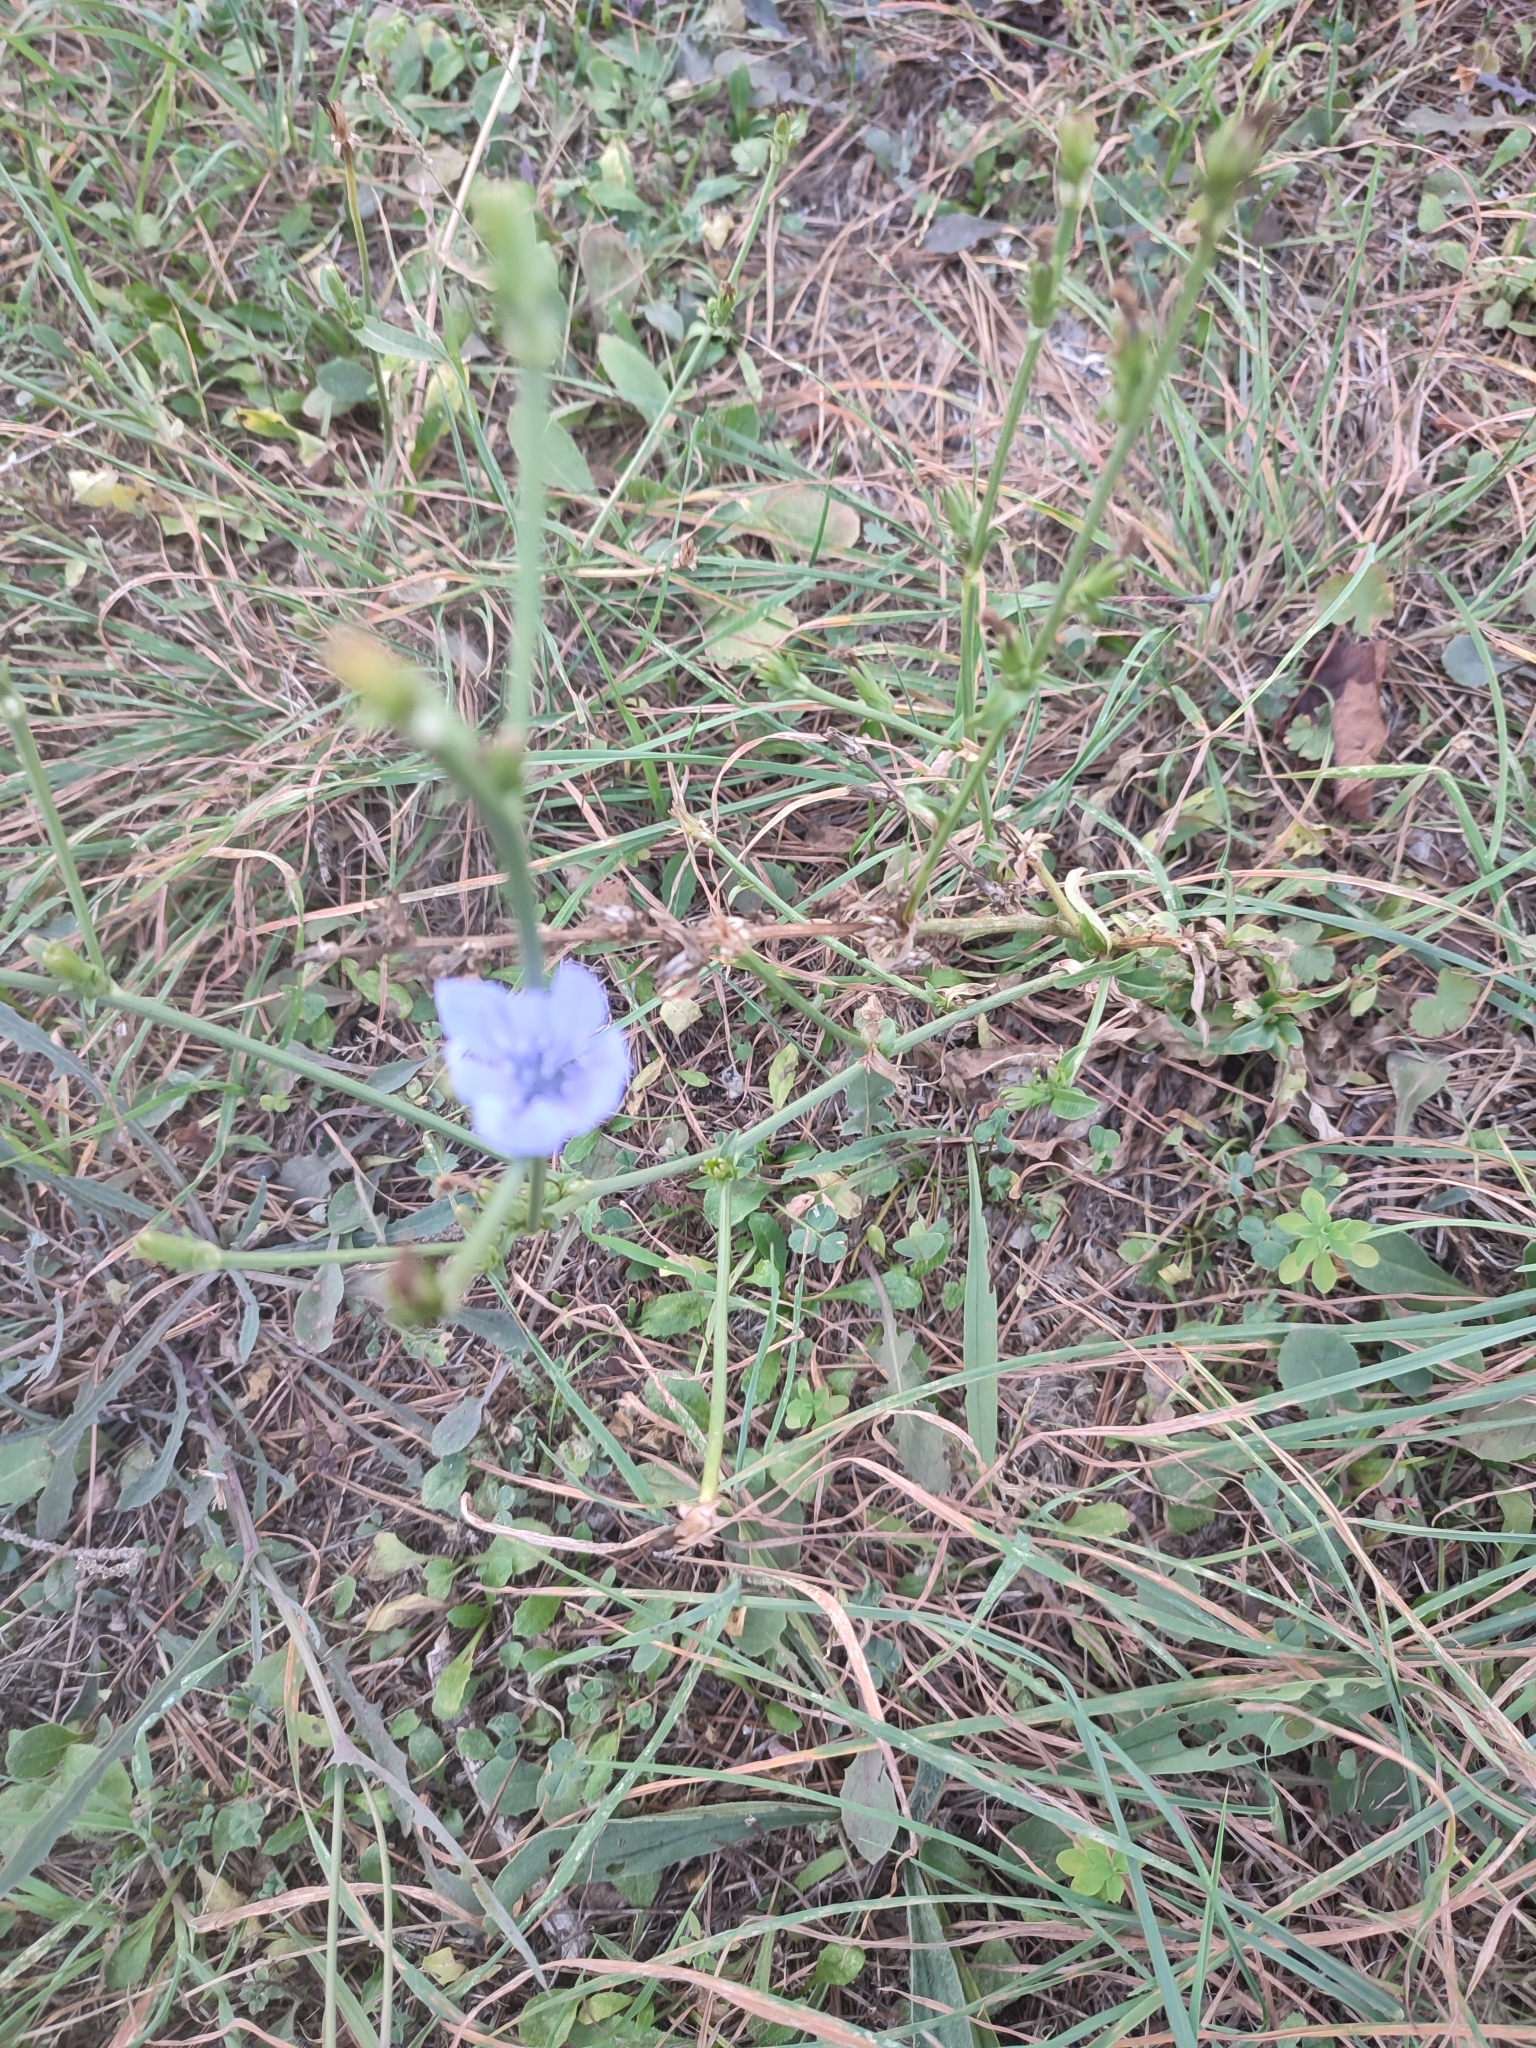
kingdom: Plantae
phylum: Tracheophyta
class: Magnoliopsida
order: Asterales
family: Asteraceae
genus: Cichorium
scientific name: Cichorium intybus
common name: Chicory
